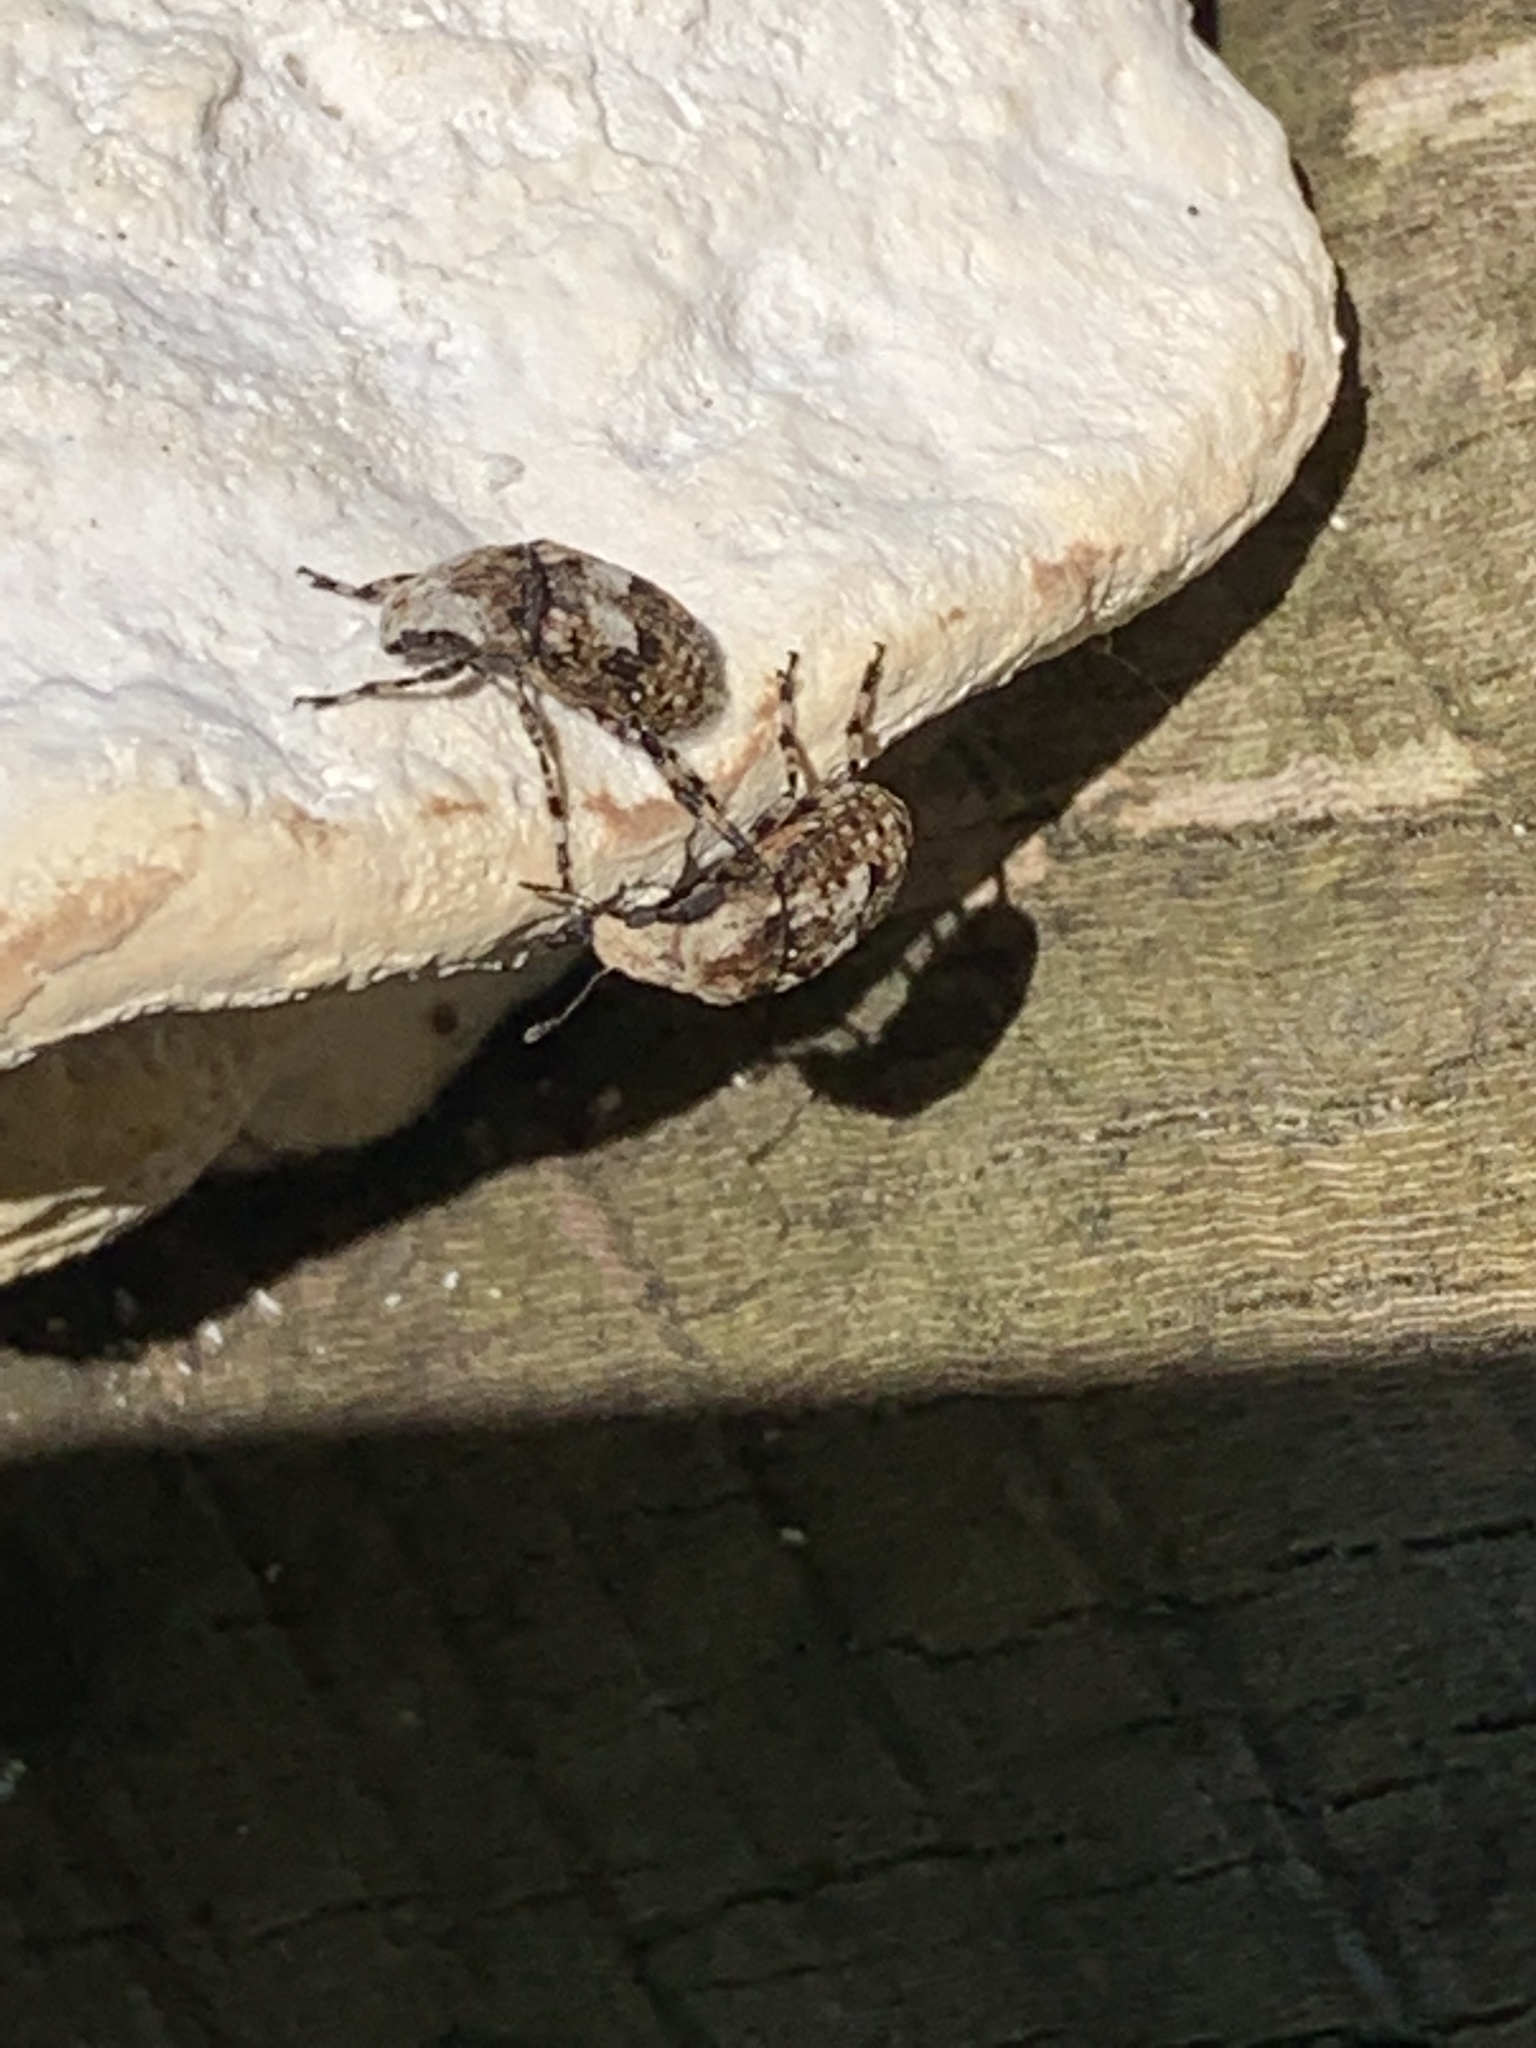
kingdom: Animalia
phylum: Arthropoda
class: Insecta
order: Coleoptera
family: Anthribidae
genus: Euparius
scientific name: Euparius marmoreus
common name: Marbled fungus weevil
